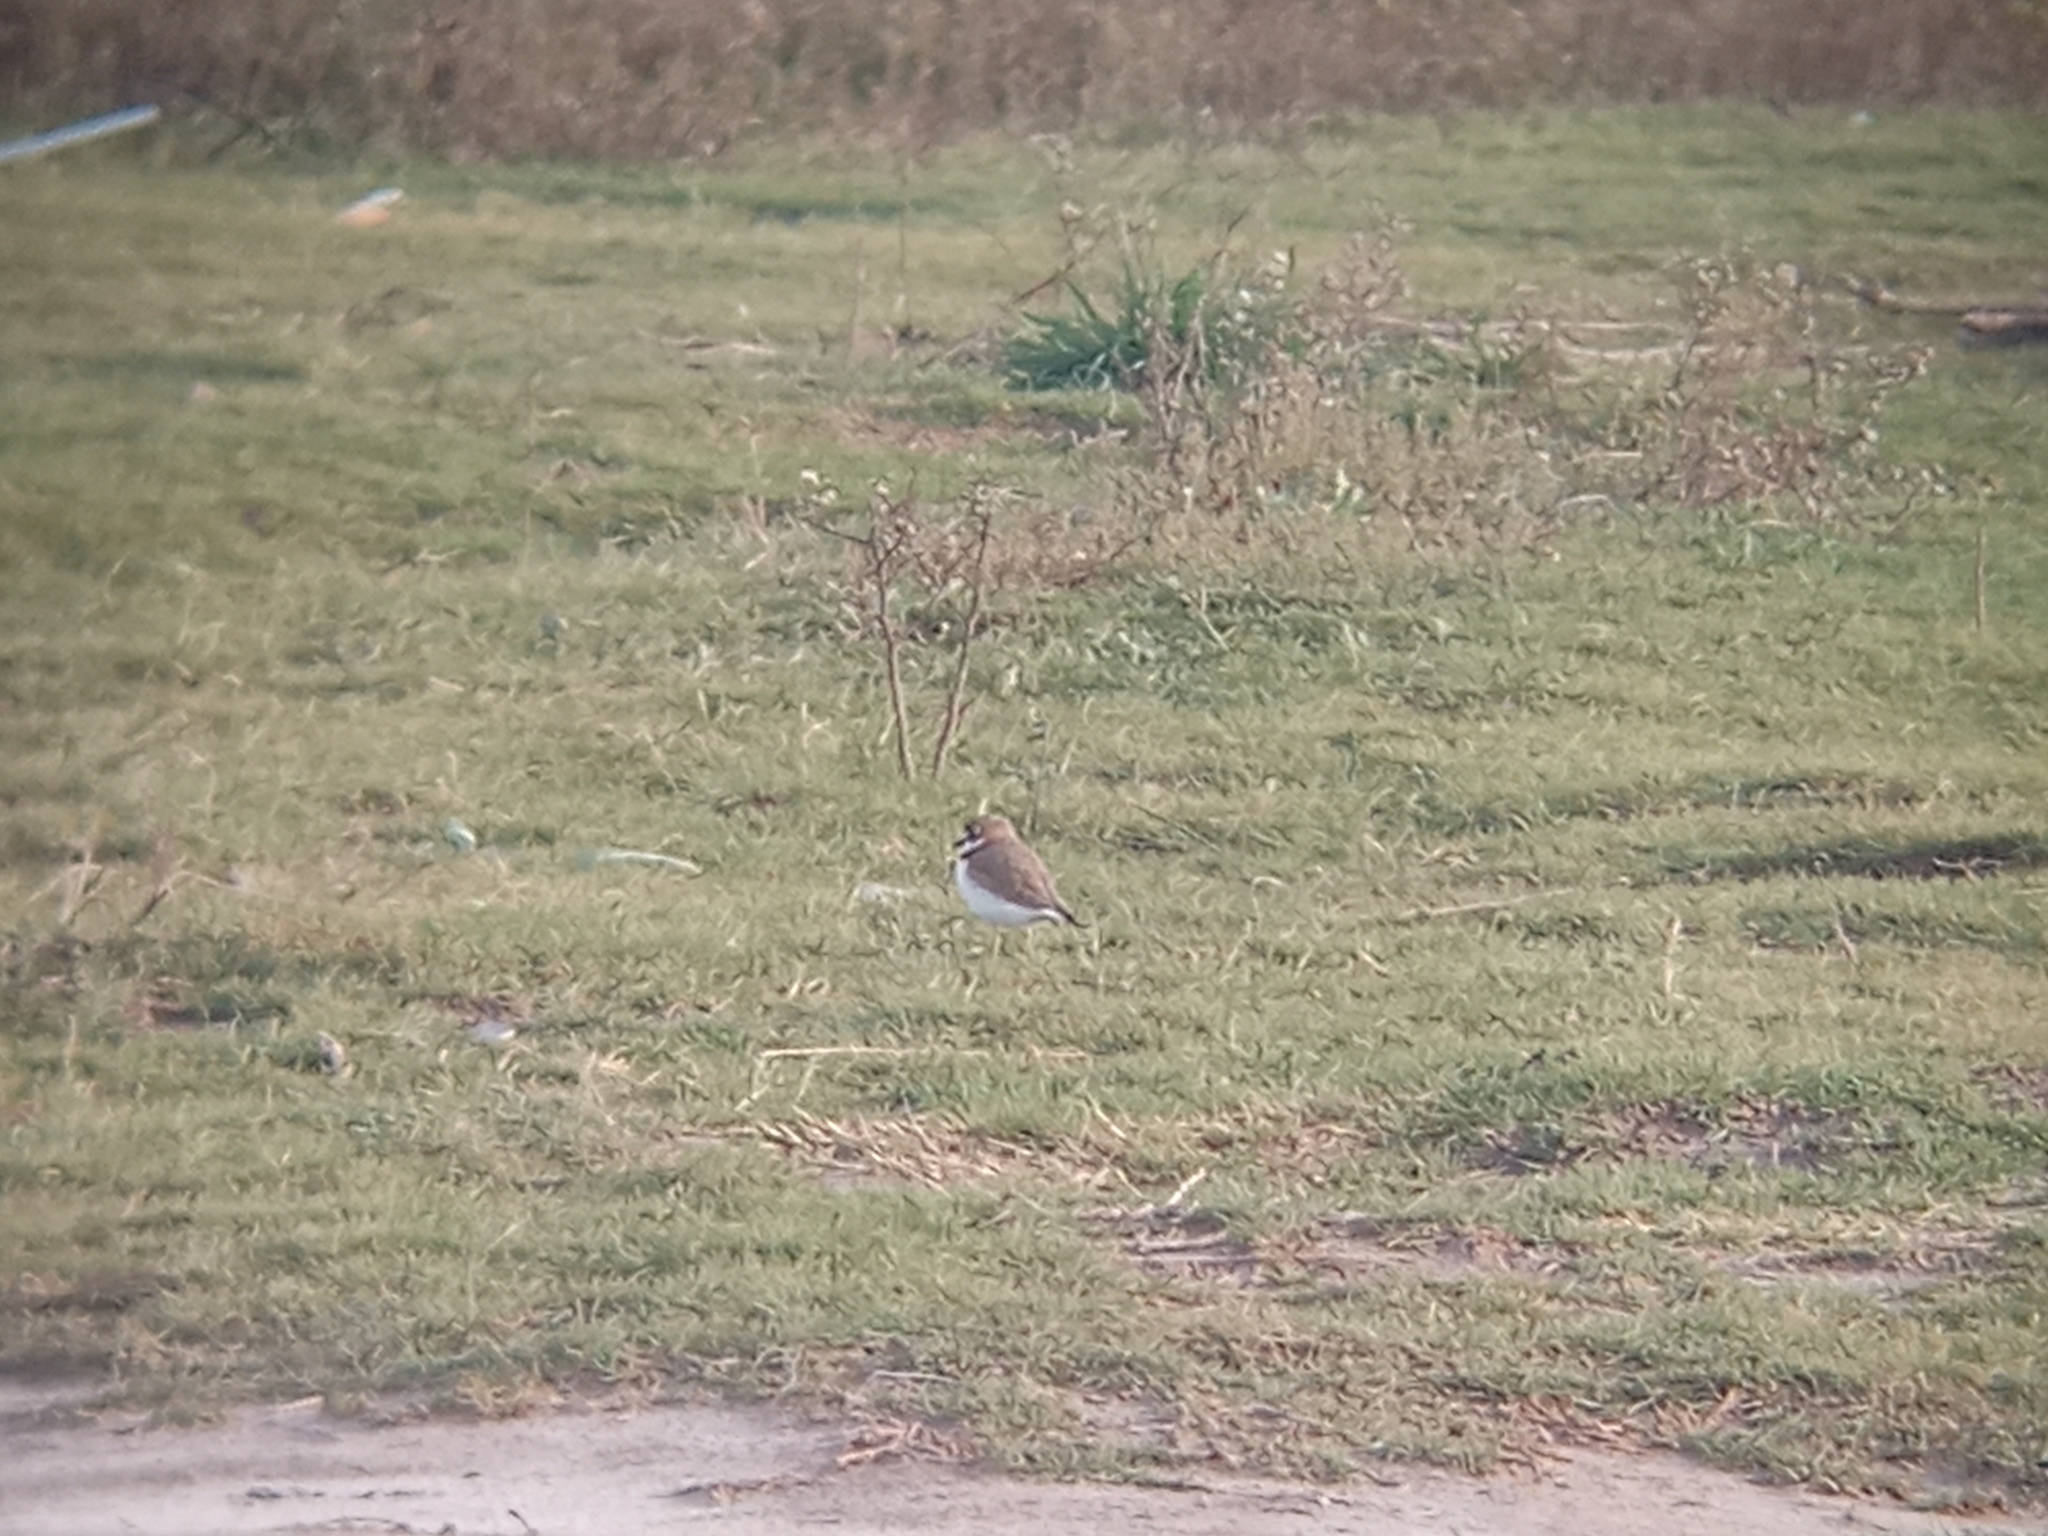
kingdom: Animalia
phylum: Chordata
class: Aves
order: Charadriiformes
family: Charadriidae
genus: Anarhynchus
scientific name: Anarhynchus
